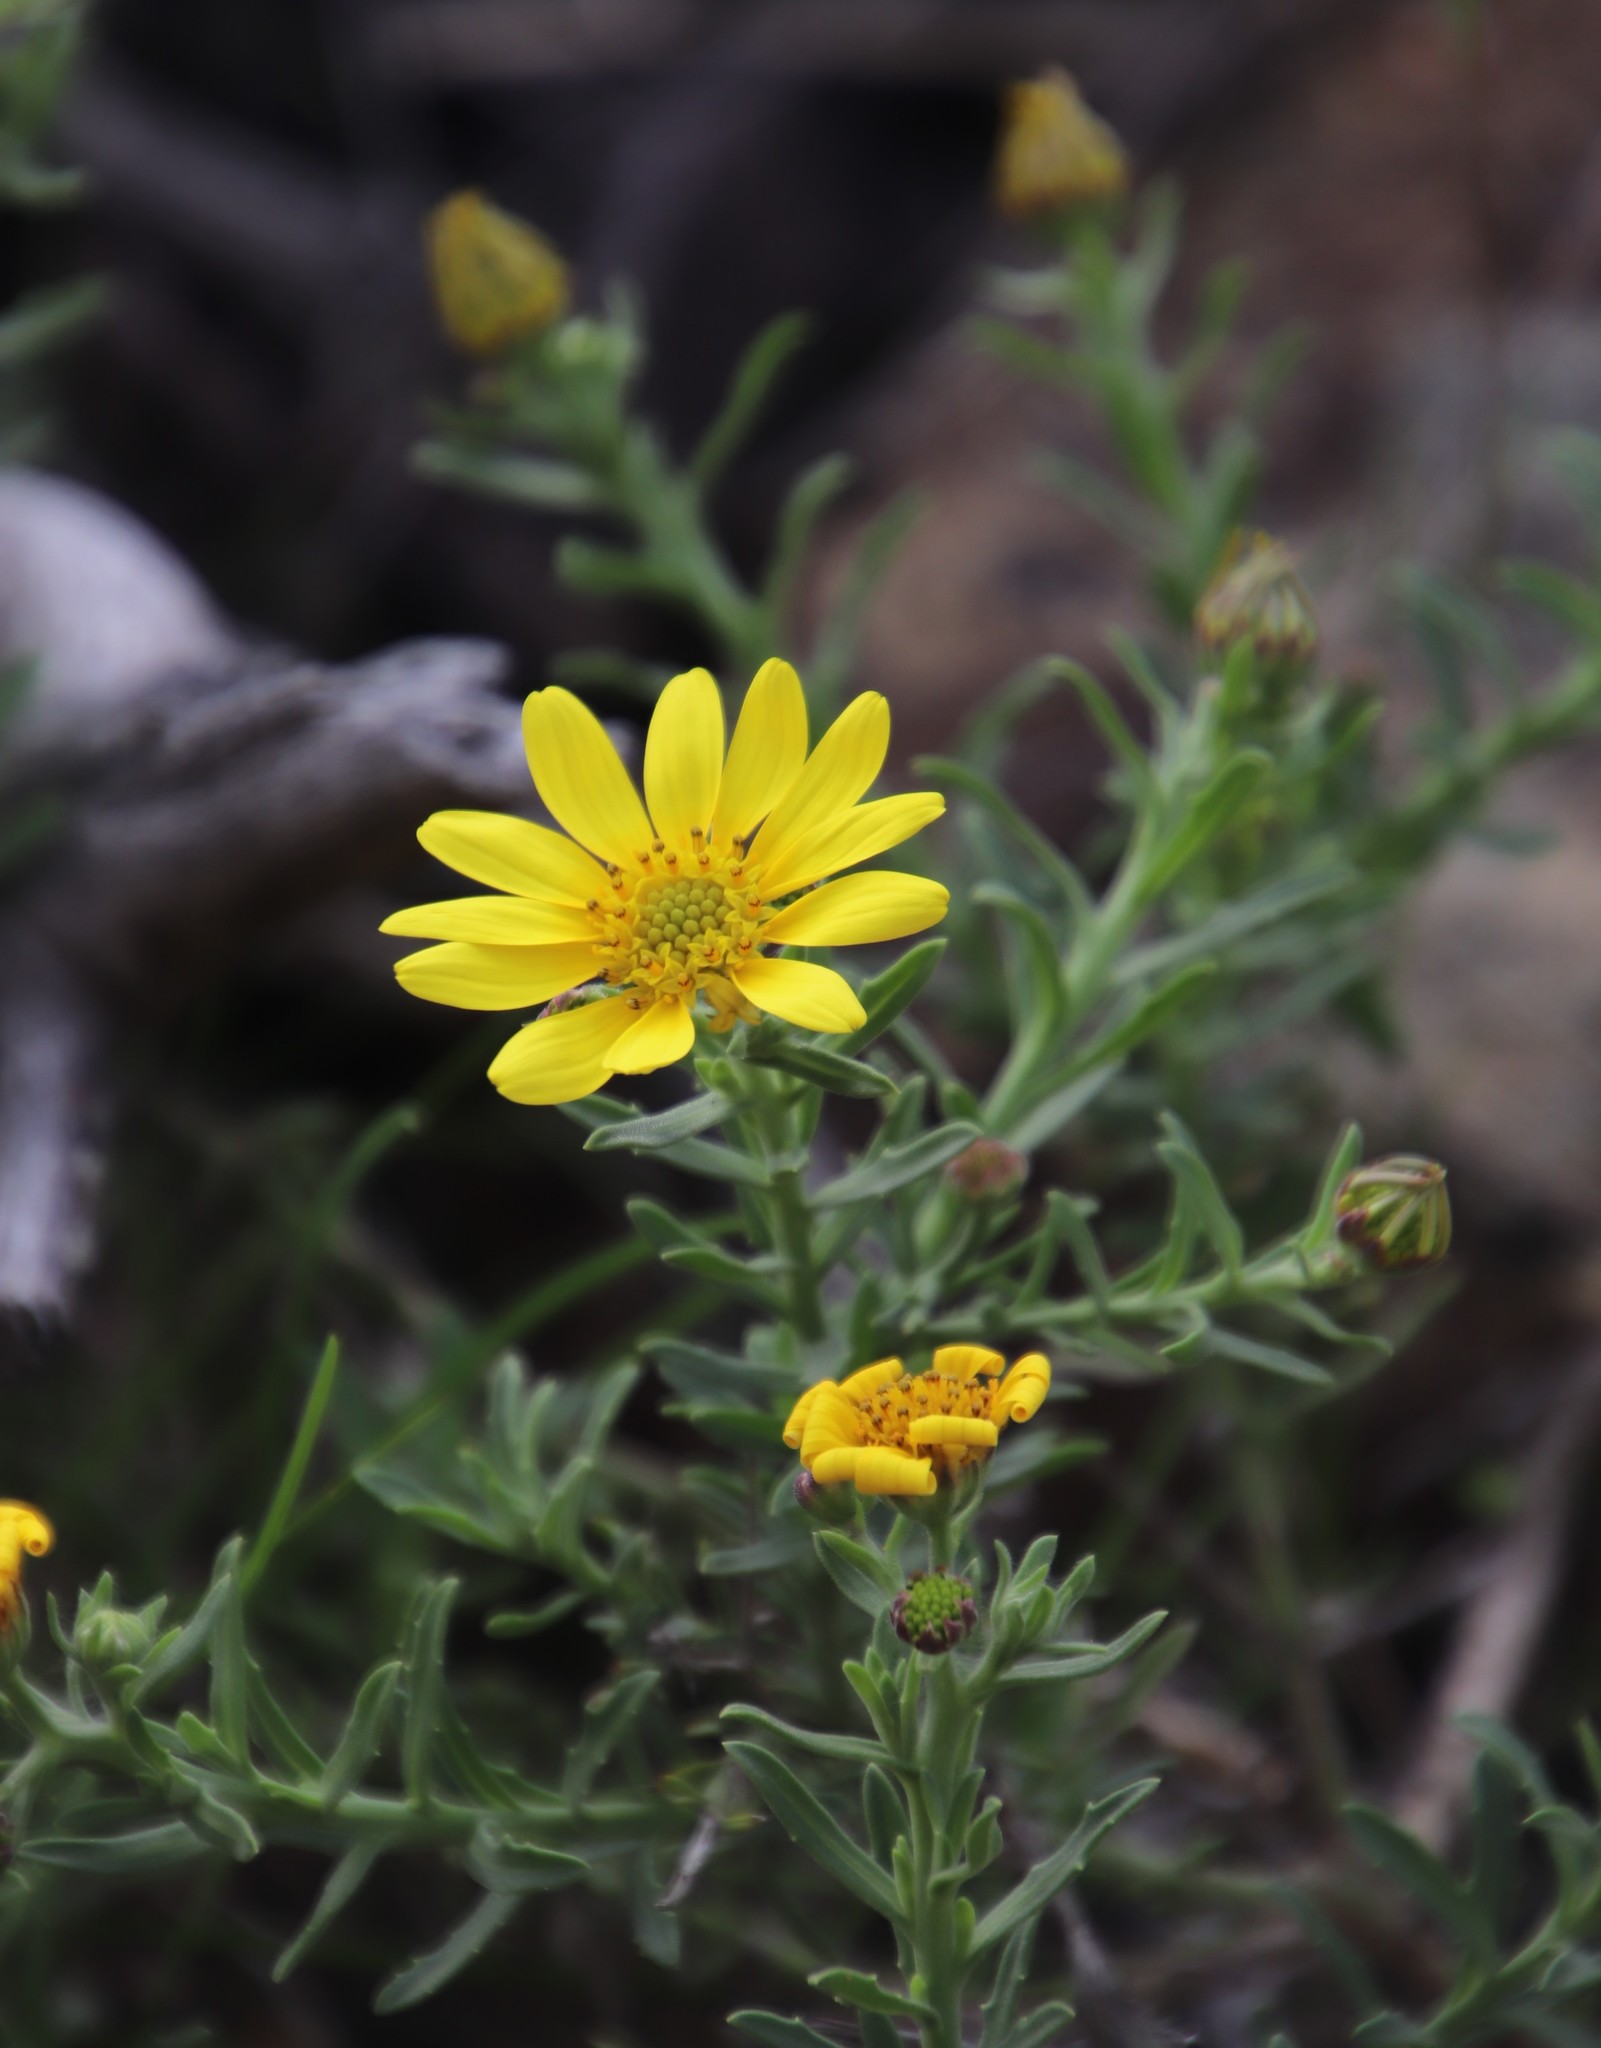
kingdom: Plantae
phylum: Tracheophyta
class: Magnoliopsida
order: Asterales
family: Asteraceae
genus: Osteospermum
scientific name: Osteospermum spinosum
